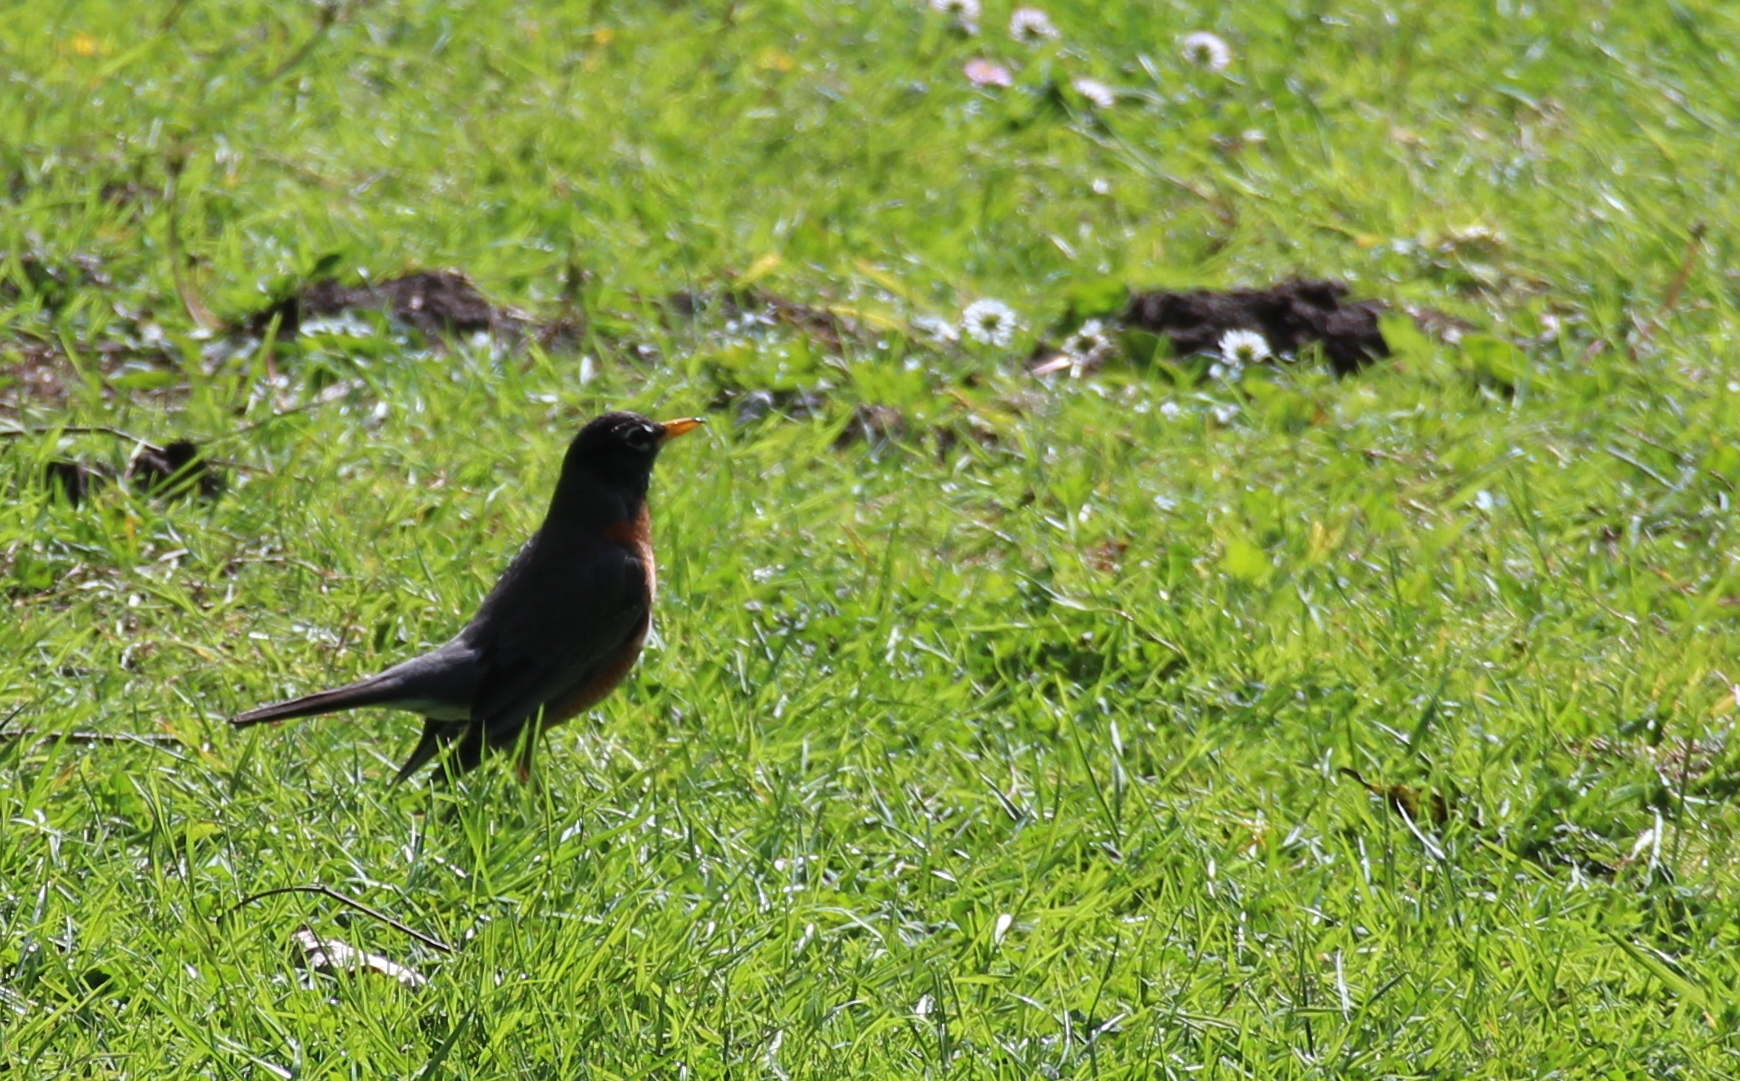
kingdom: Animalia
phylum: Chordata
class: Aves
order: Passeriformes
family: Turdidae
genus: Turdus
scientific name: Turdus migratorius
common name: American robin
